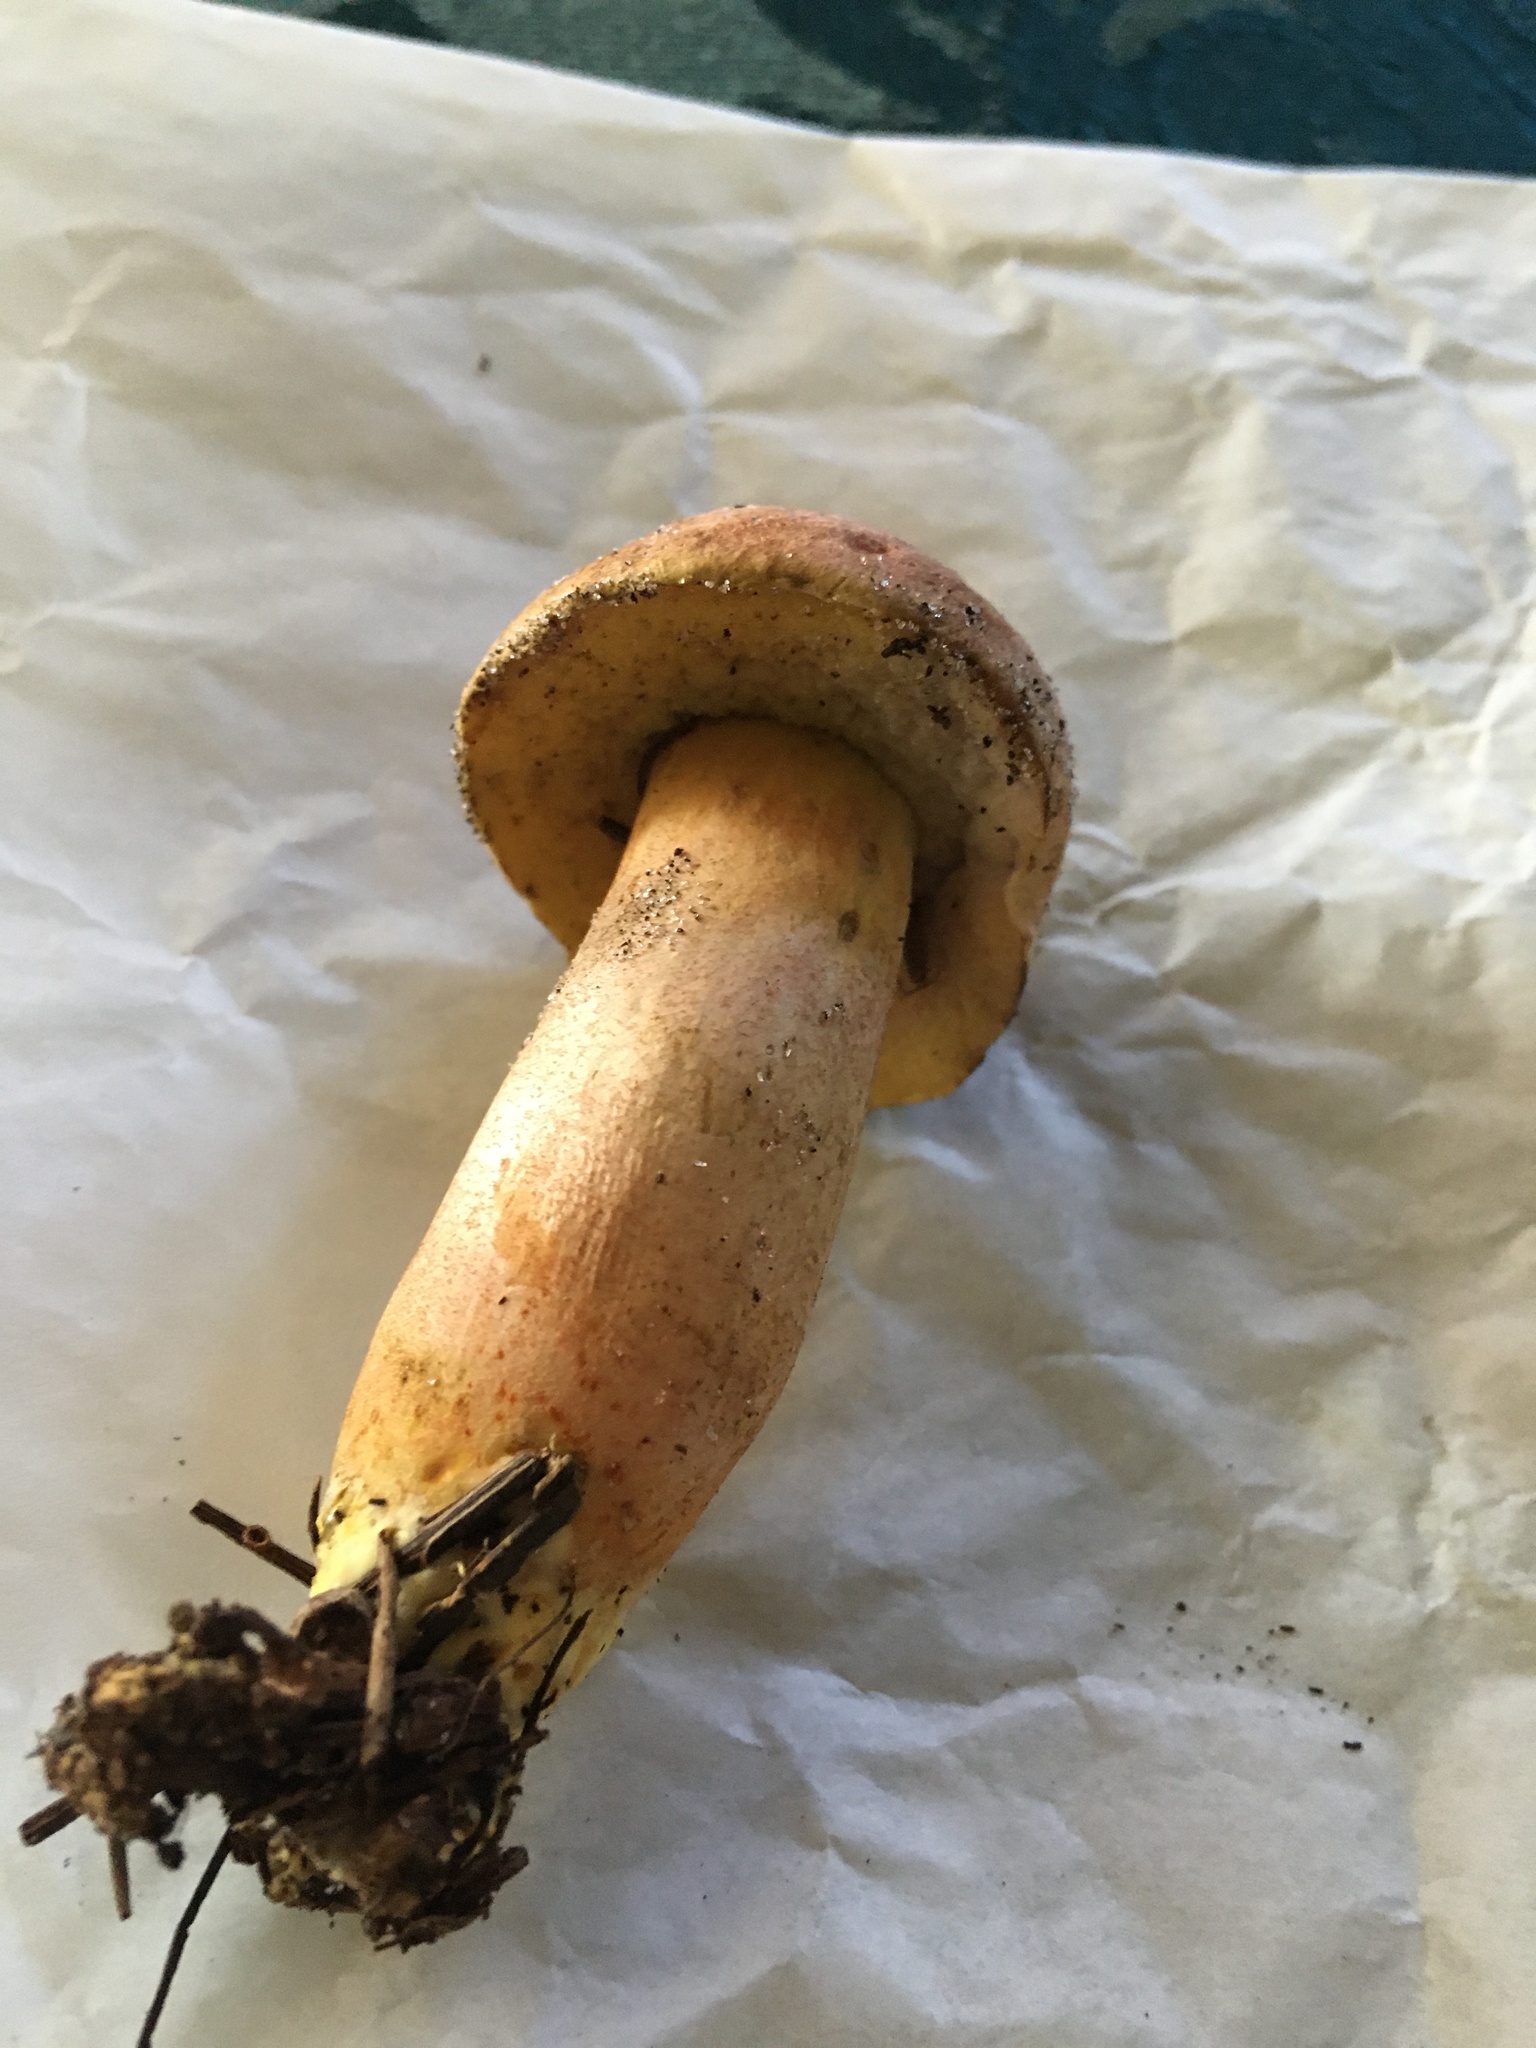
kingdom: Fungi
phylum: Ascomycota
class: Sordariomycetes
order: Hypocreales
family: Hypocreaceae
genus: Hypomyces
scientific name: Hypomyces chlorinus
